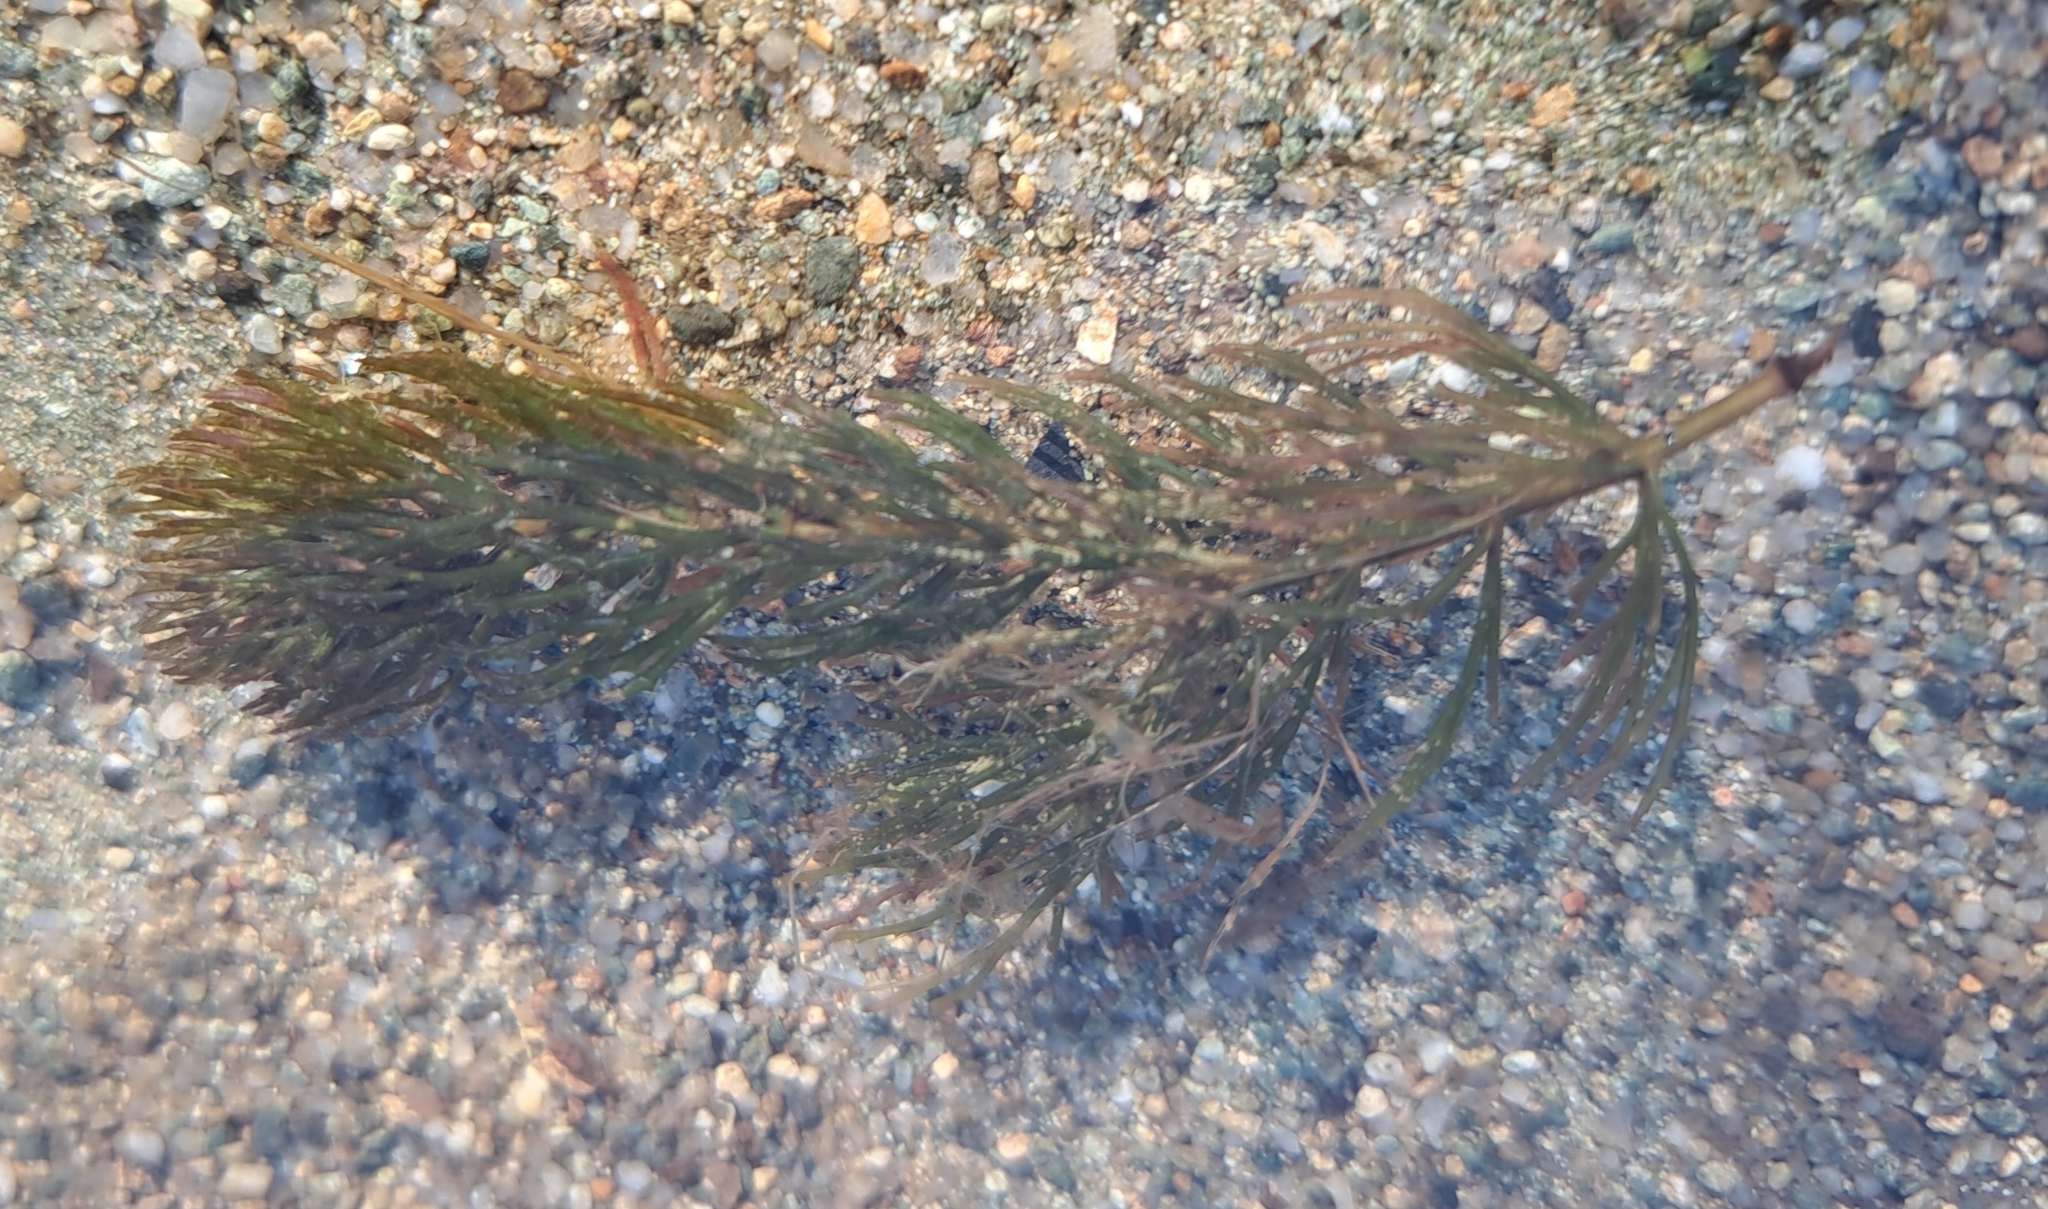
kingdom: Plantae
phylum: Tracheophyta
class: Magnoliopsida
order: Ceratophyllales
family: Ceratophyllaceae
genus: Ceratophyllum
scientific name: Ceratophyllum demersum
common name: Rigid hornwort
